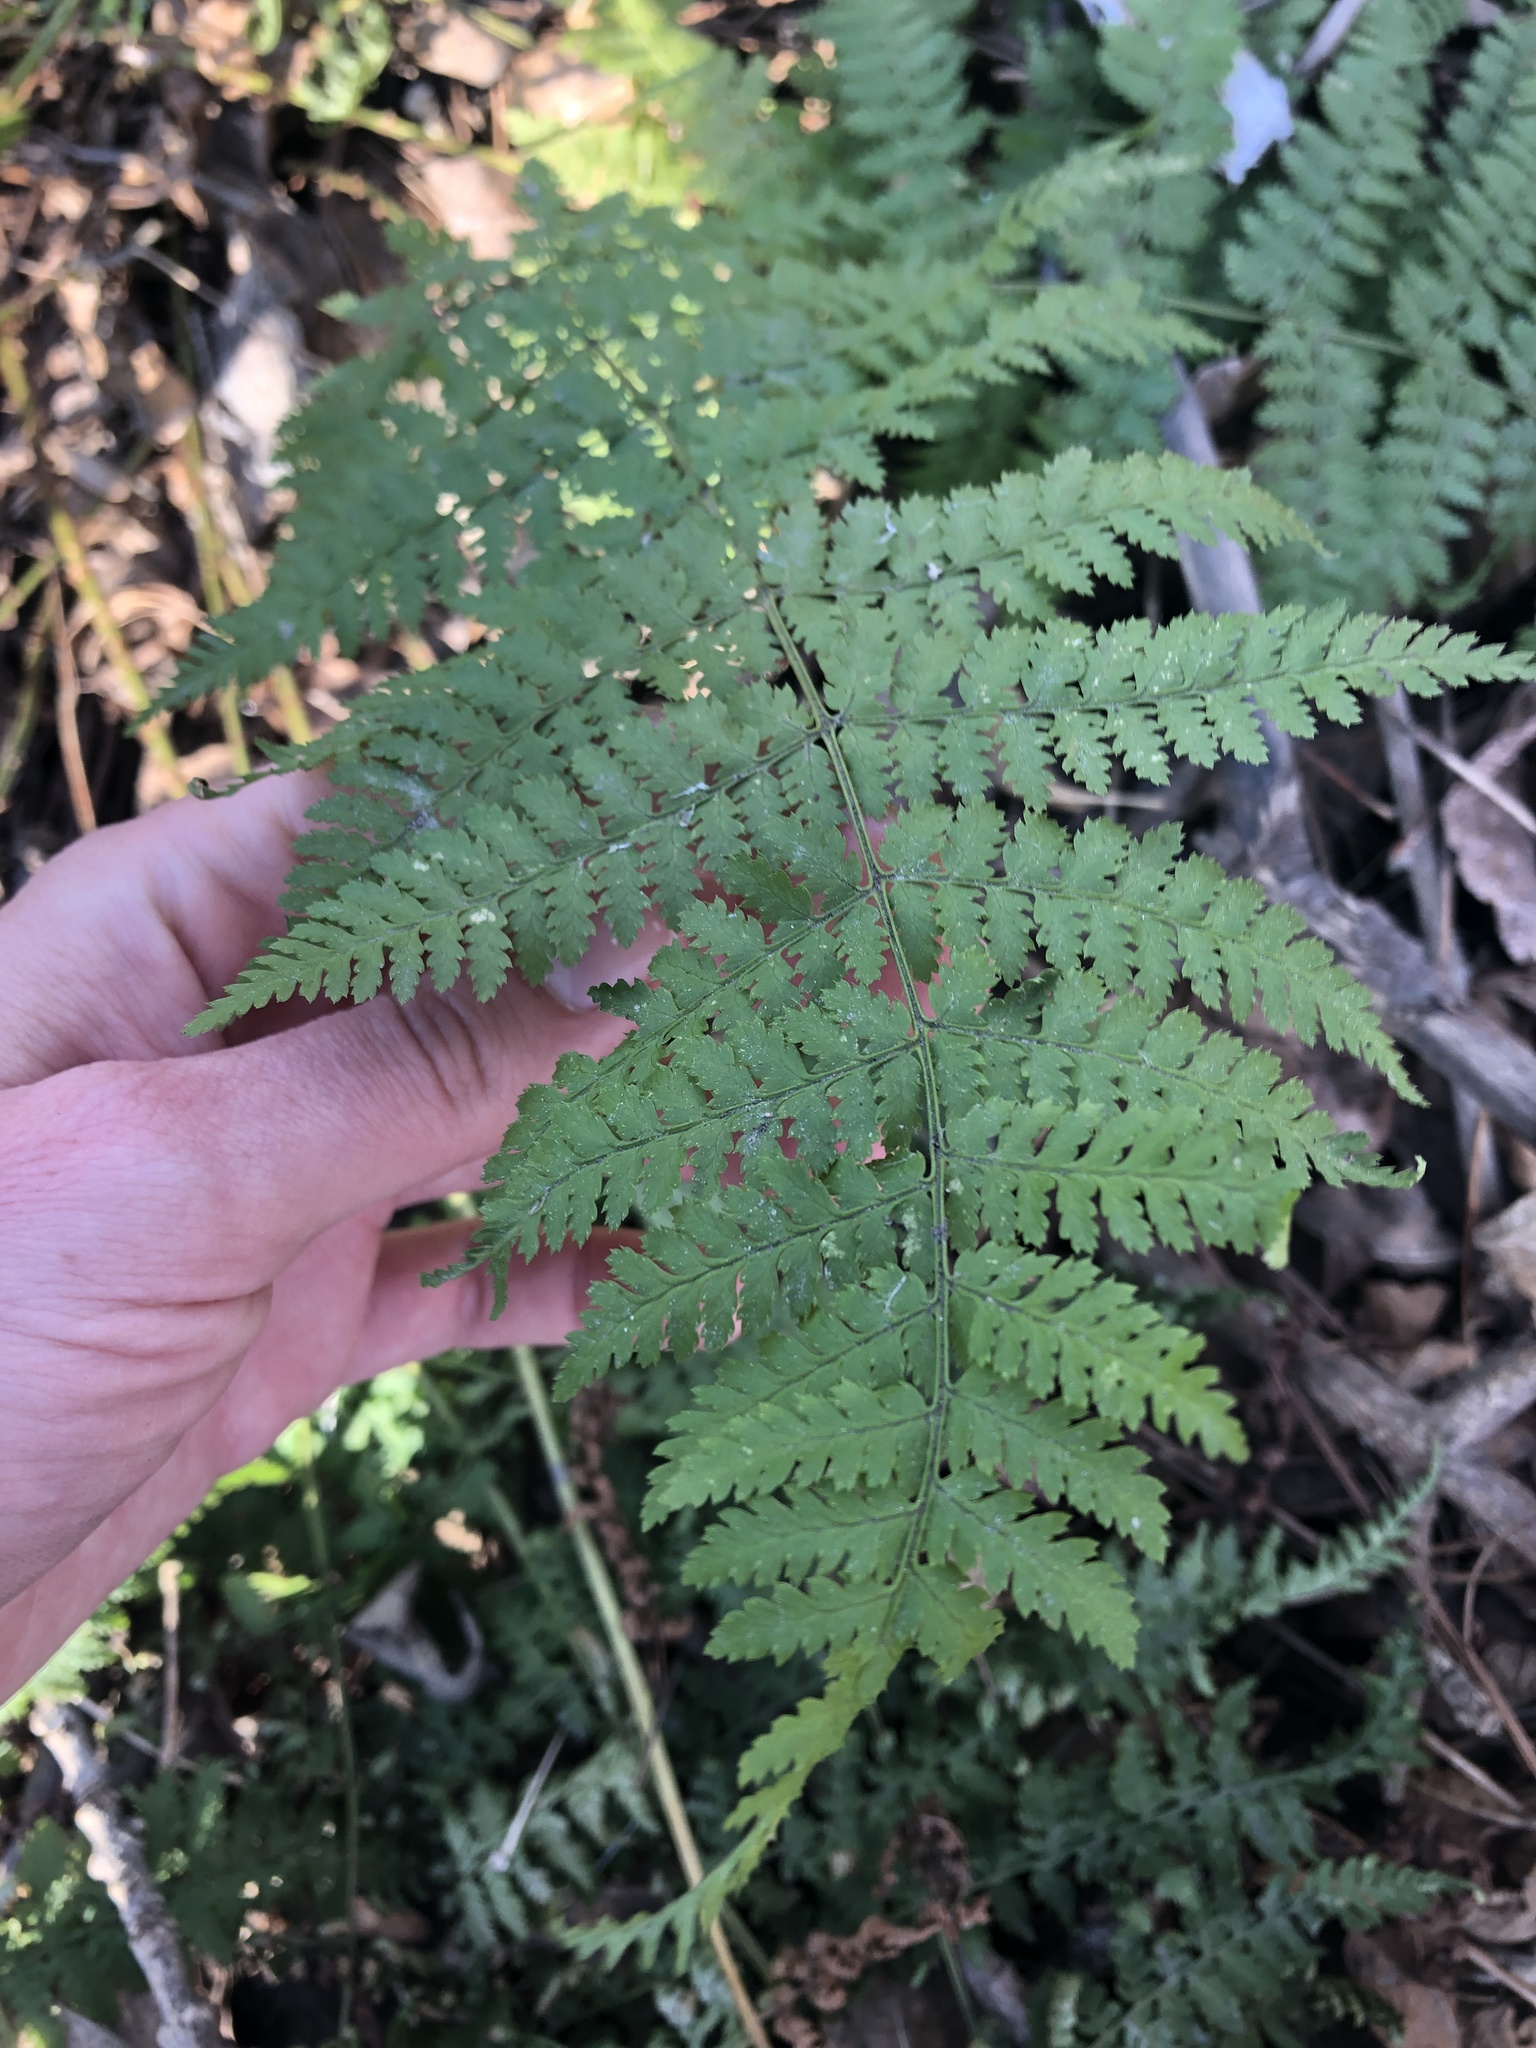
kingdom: Plantae
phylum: Tracheophyta
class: Polypodiopsida
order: Polypodiales
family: Dryopteridaceae
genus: Dryopteris
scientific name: Dryopteris intermedia
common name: Evergreen wood fern
